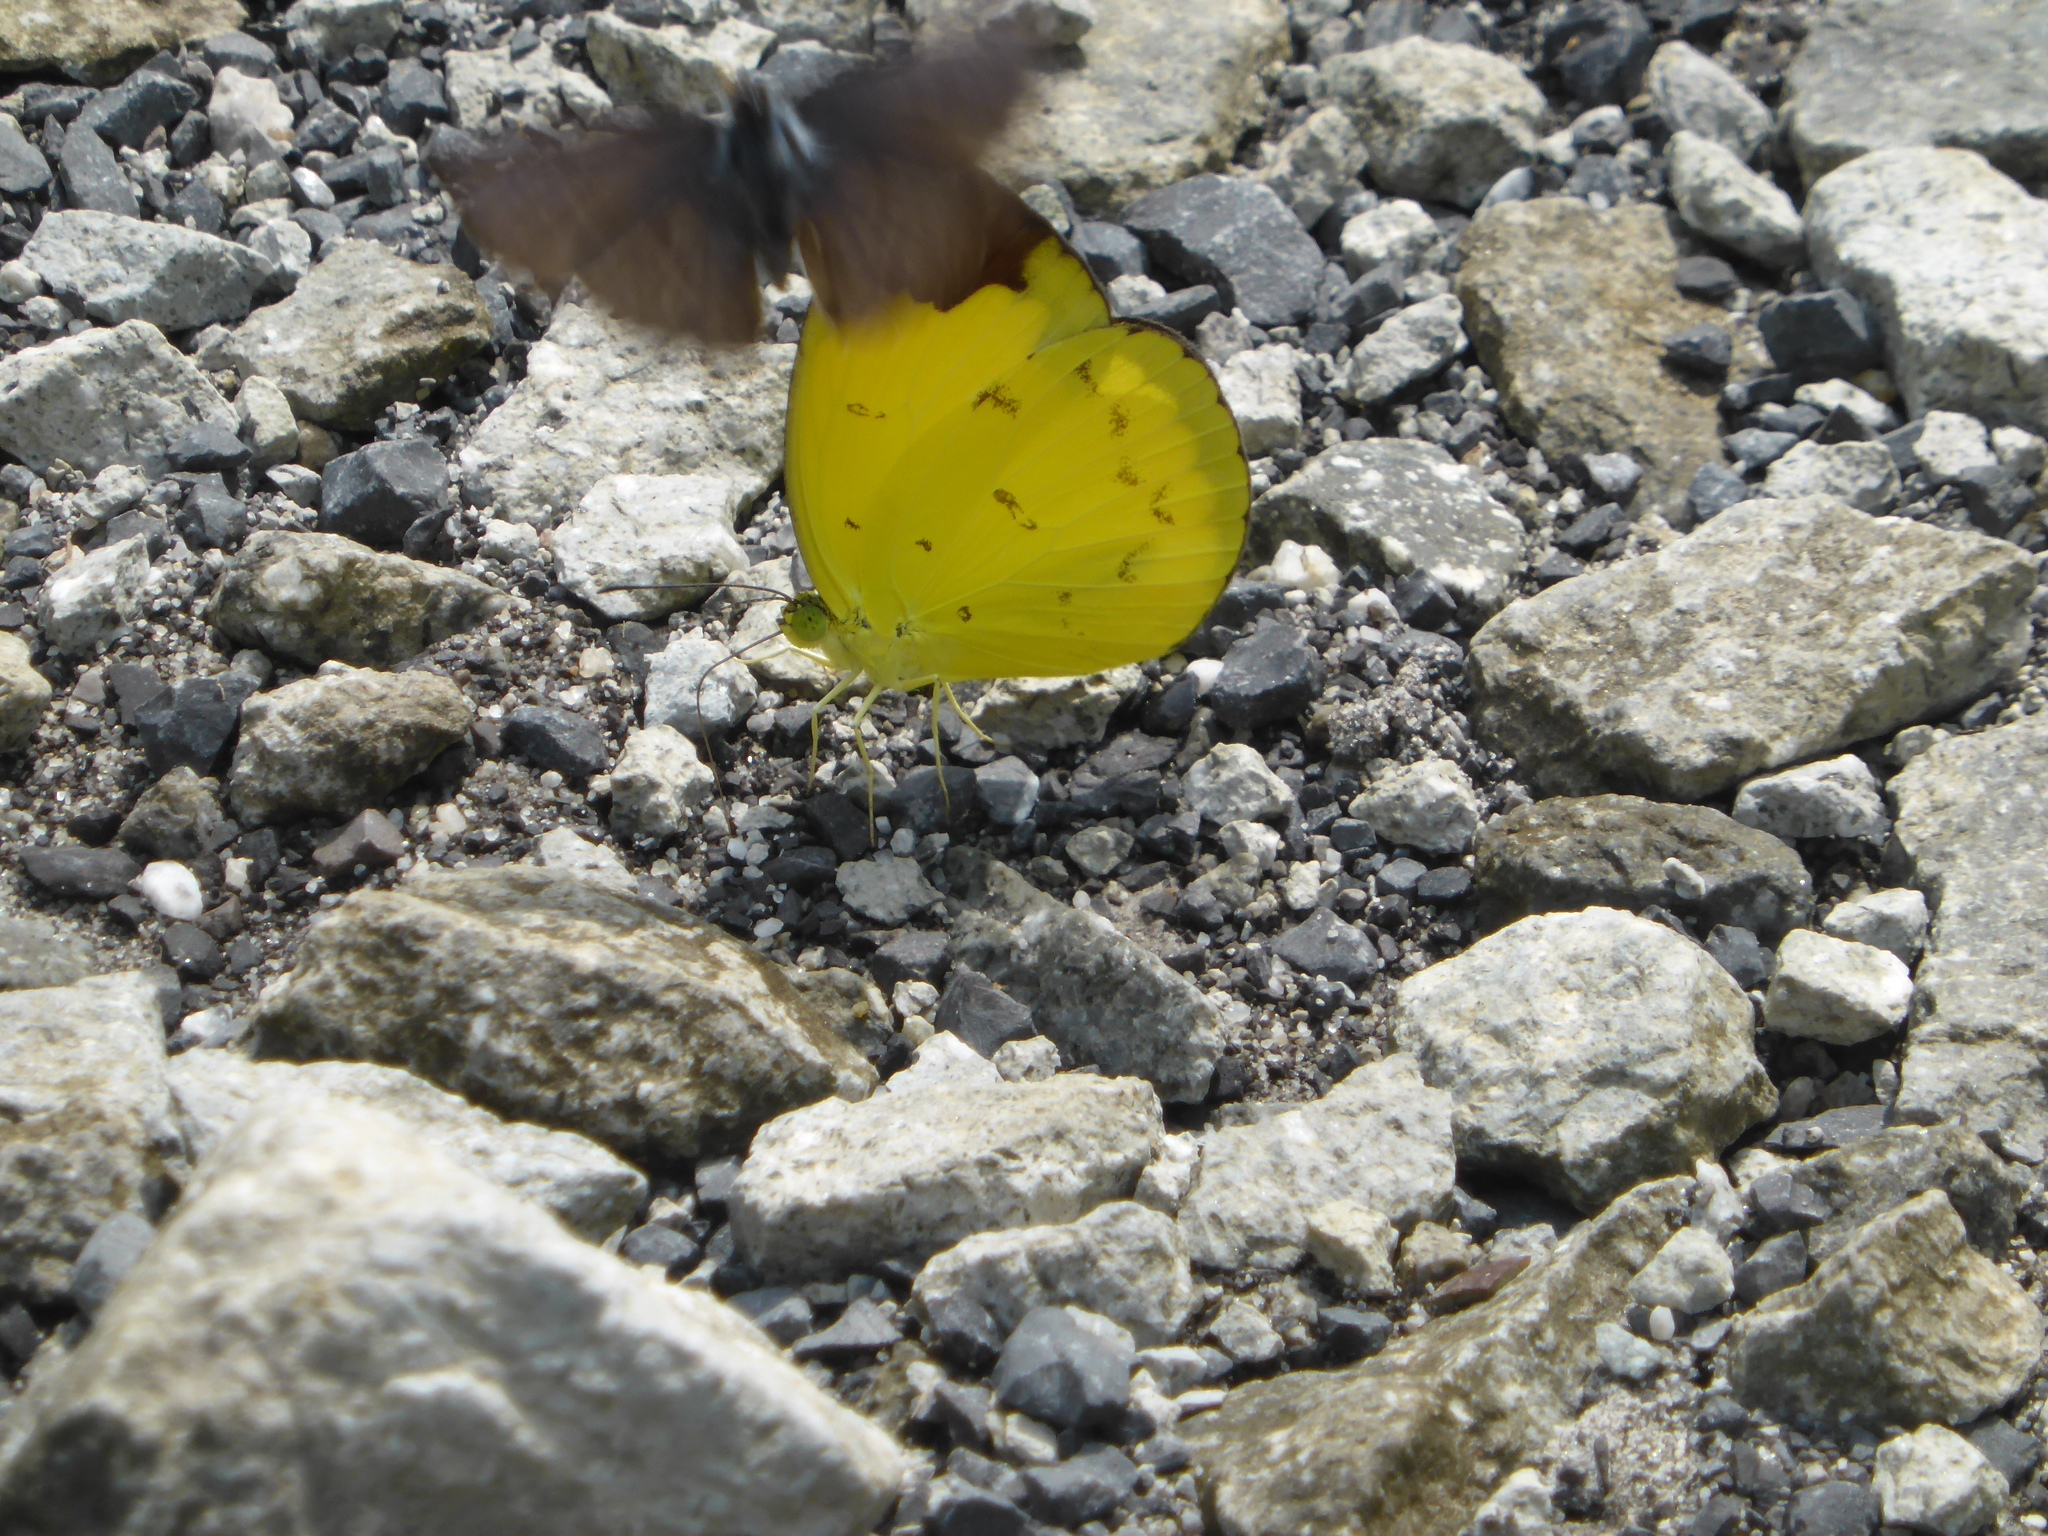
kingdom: Animalia
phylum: Arthropoda
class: Insecta
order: Lepidoptera
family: Pieridae
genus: Eurema
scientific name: Eurema sari
